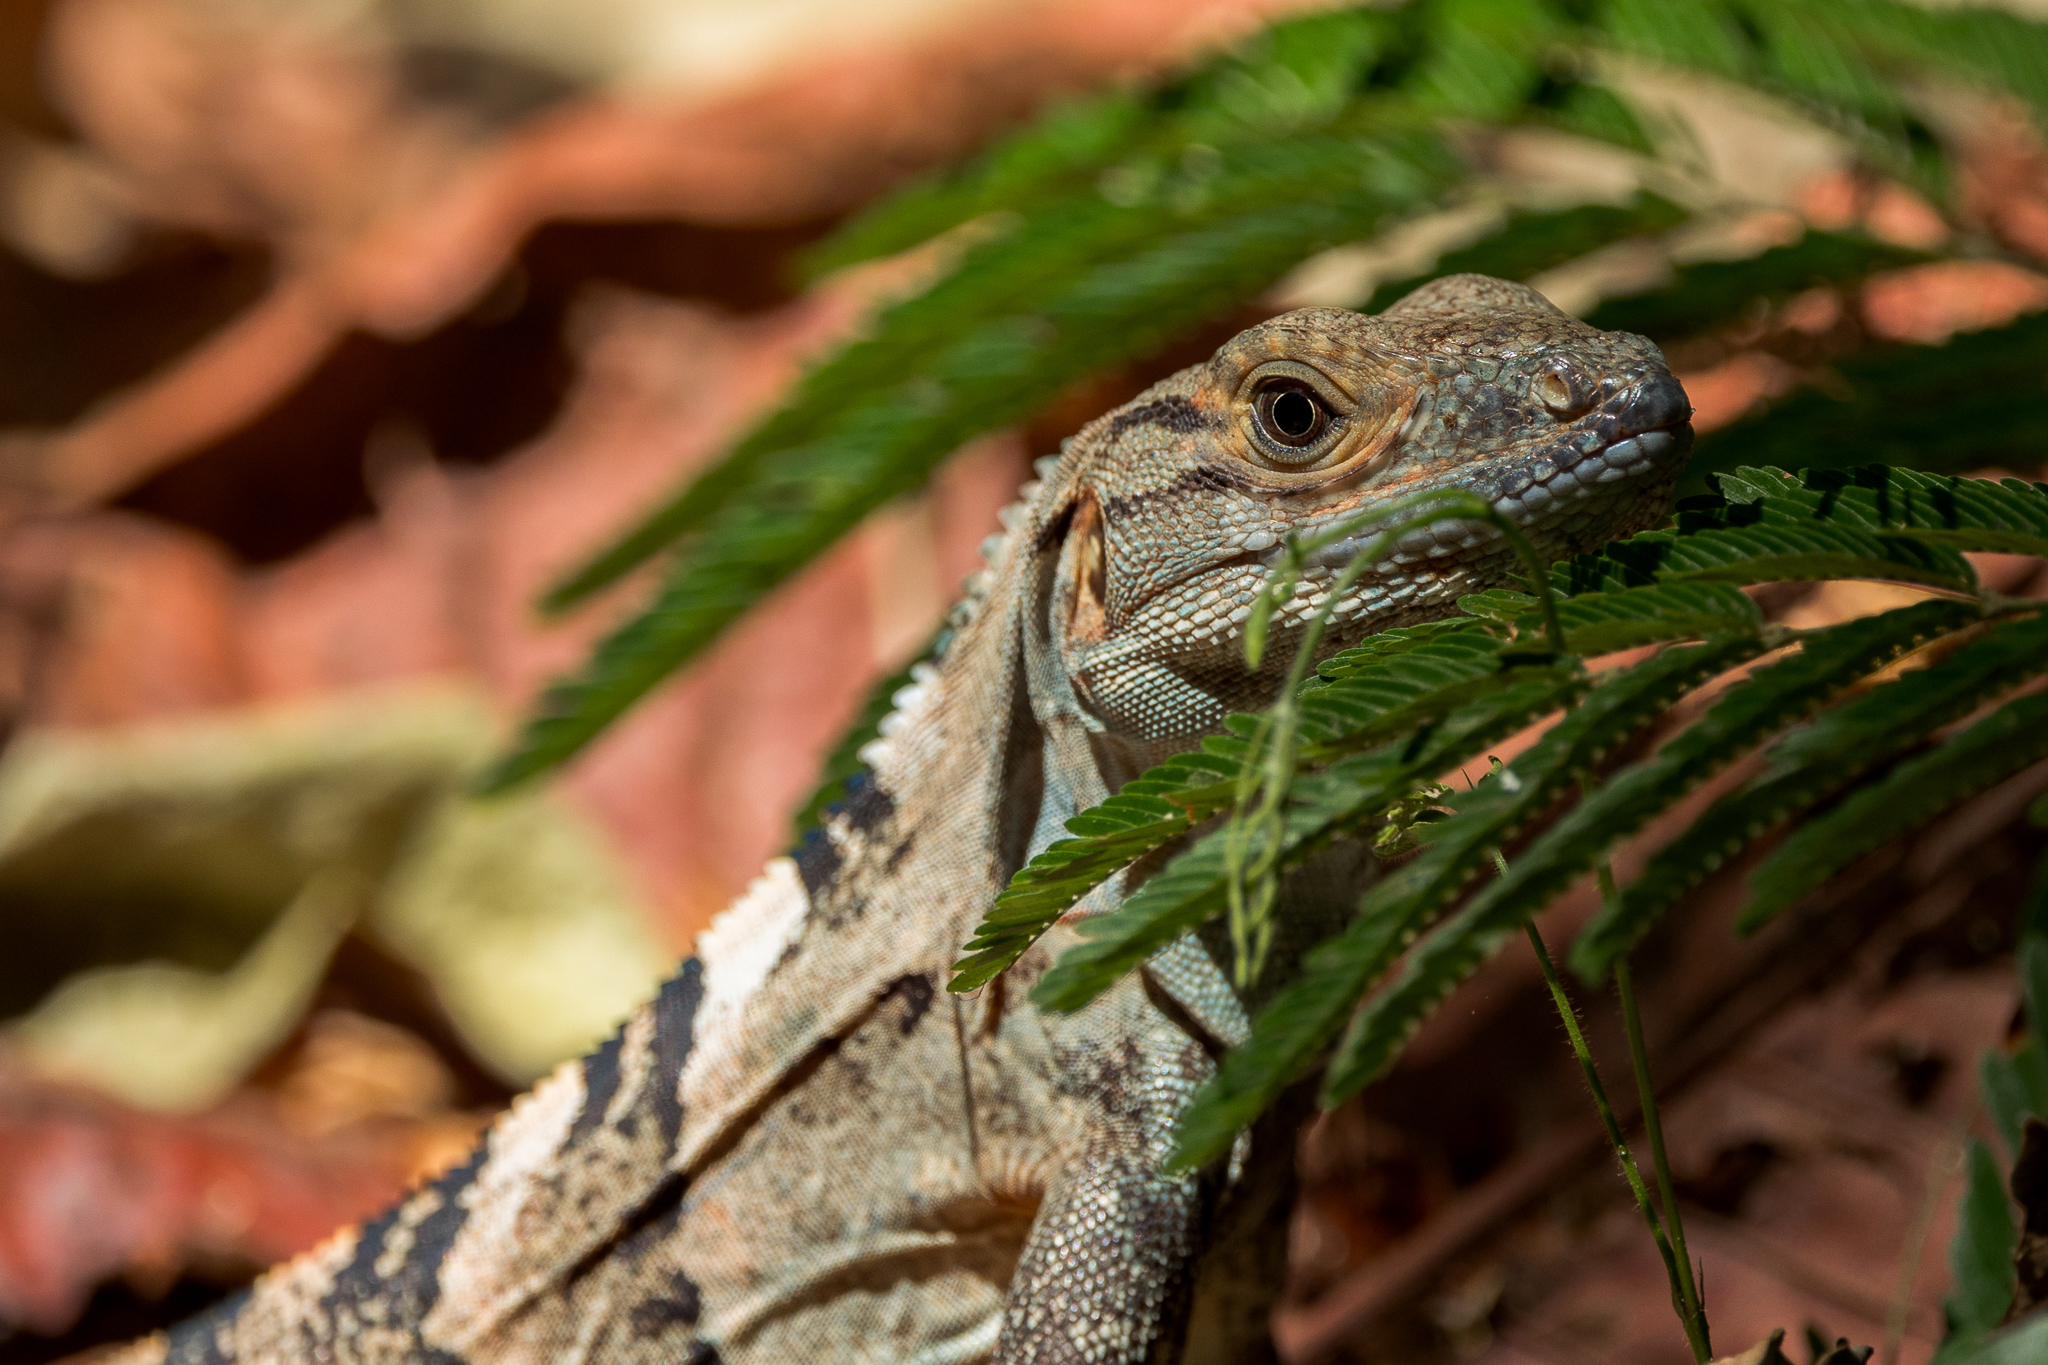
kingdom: Animalia
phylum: Chordata
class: Squamata
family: Iguanidae
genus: Ctenosaura
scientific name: Ctenosaura similis
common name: Black spiny-tailed iguana
